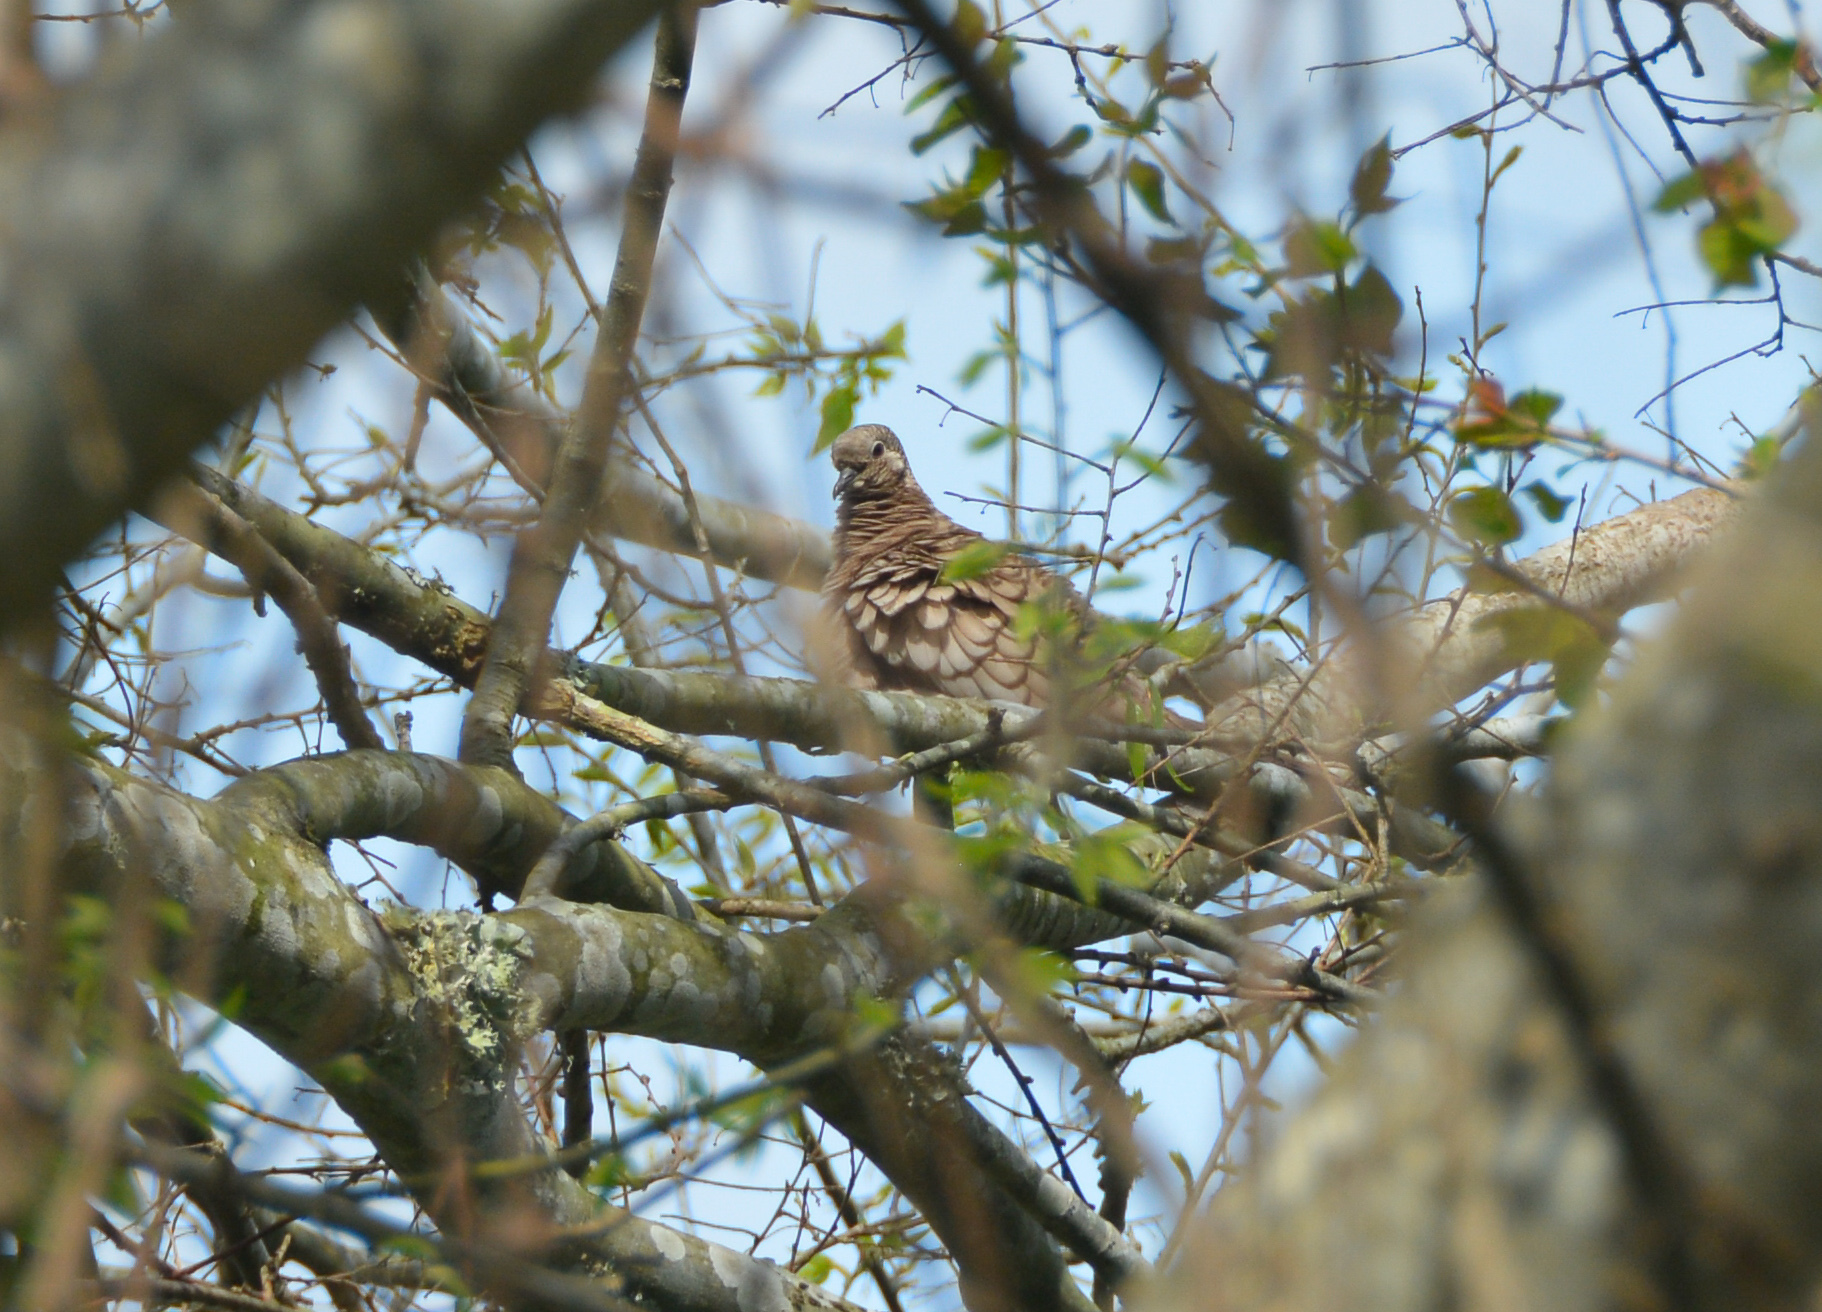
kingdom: Animalia
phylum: Chordata
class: Aves
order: Columbiformes
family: Columbidae
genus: Columbina
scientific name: Columbina inca
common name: Inca dove
